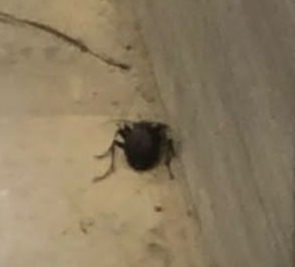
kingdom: Animalia
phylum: Arthropoda
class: Insecta
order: Coleoptera
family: Carabidae
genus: Carabus
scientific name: Carabus
